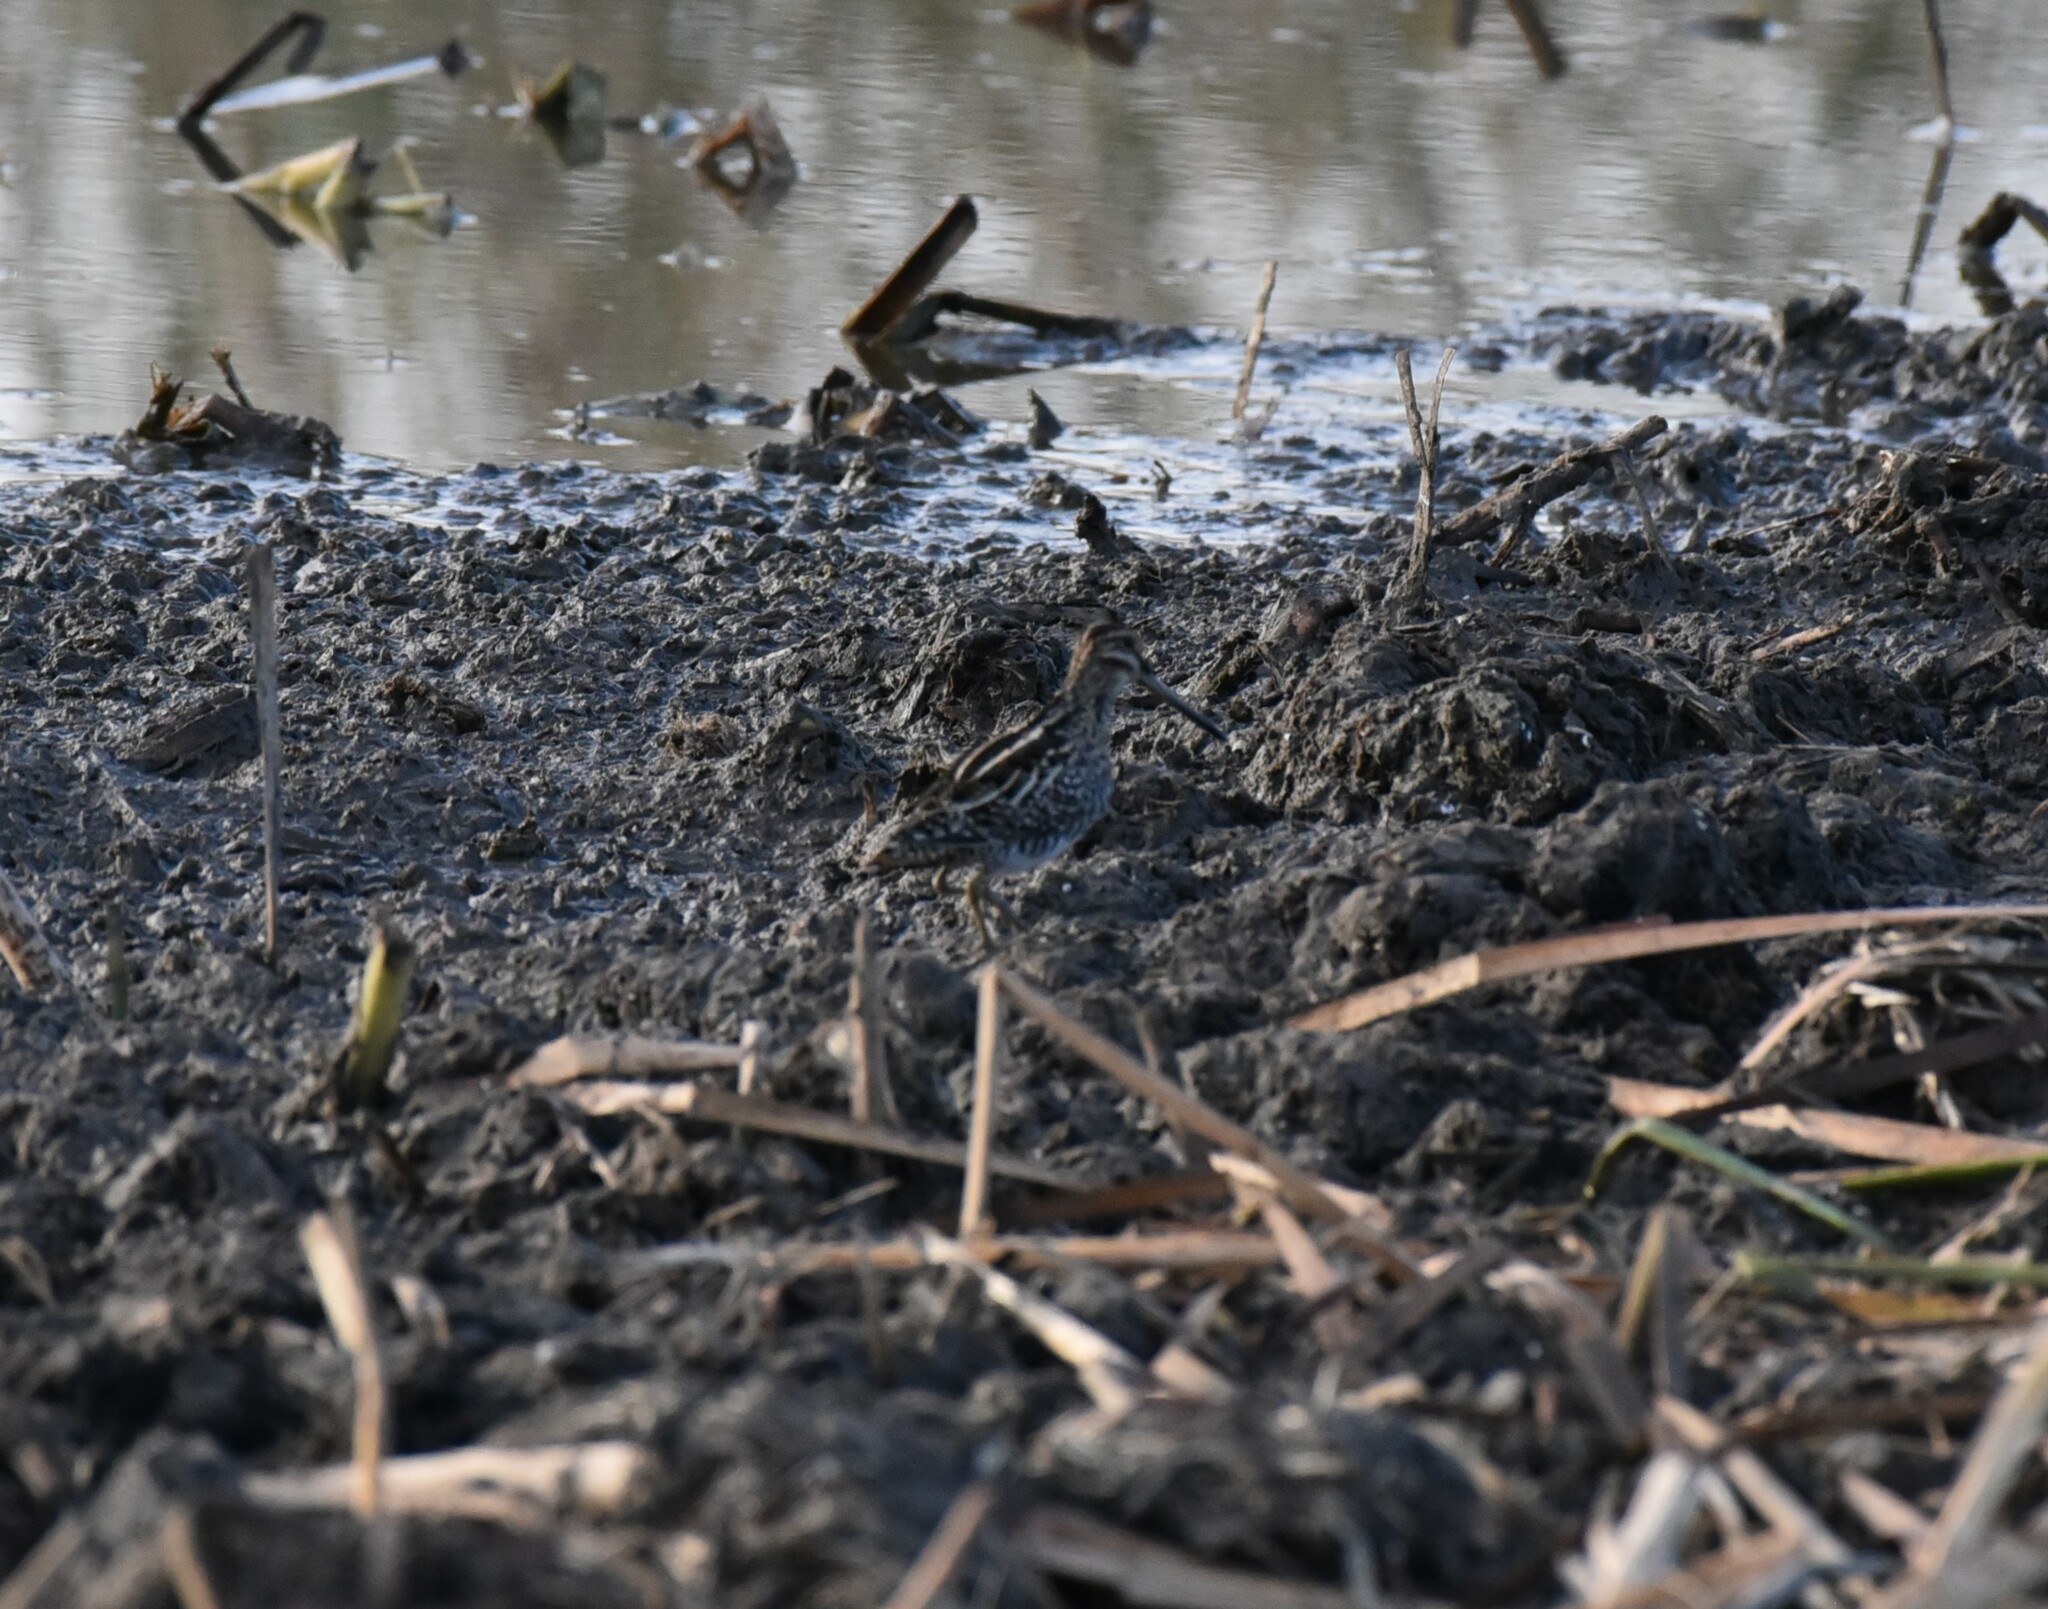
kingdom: Animalia
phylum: Chordata
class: Aves
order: Charadriiformes
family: Scolopacidae
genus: Gallinago
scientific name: Gallinago delicata
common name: Wilson's snipe
